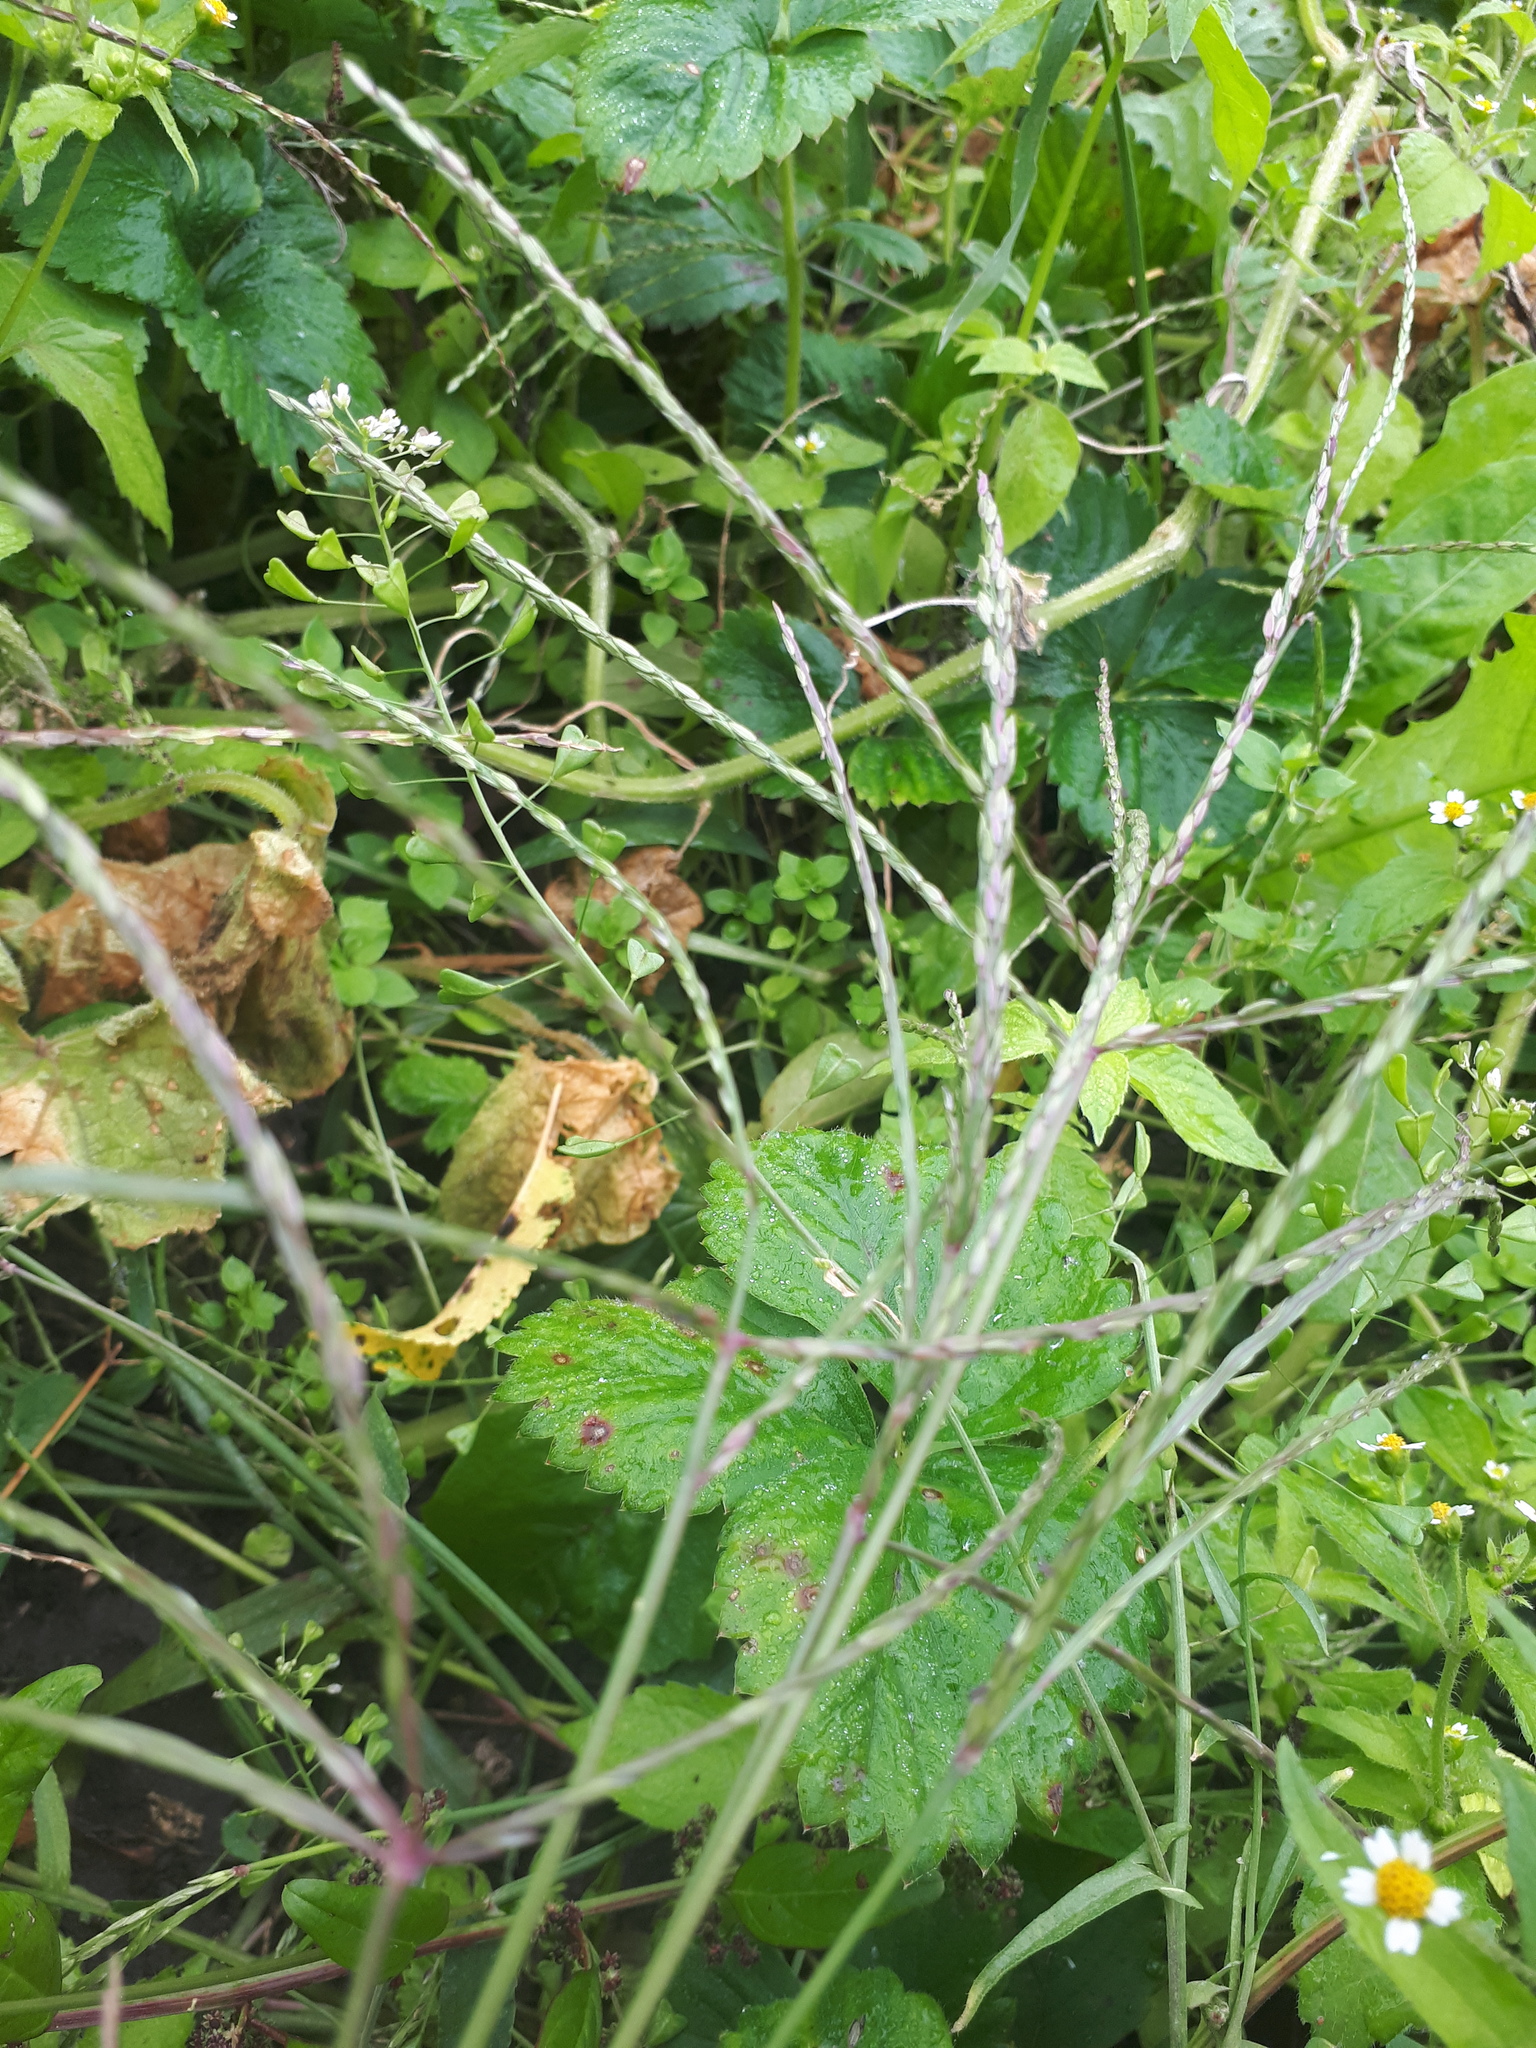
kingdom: Plantae
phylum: Tracheophyta
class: Liliopsida
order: Poales
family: Poaceae
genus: Digitaria
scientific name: Digitaria sanguinalis
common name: Hairy crabgrass
